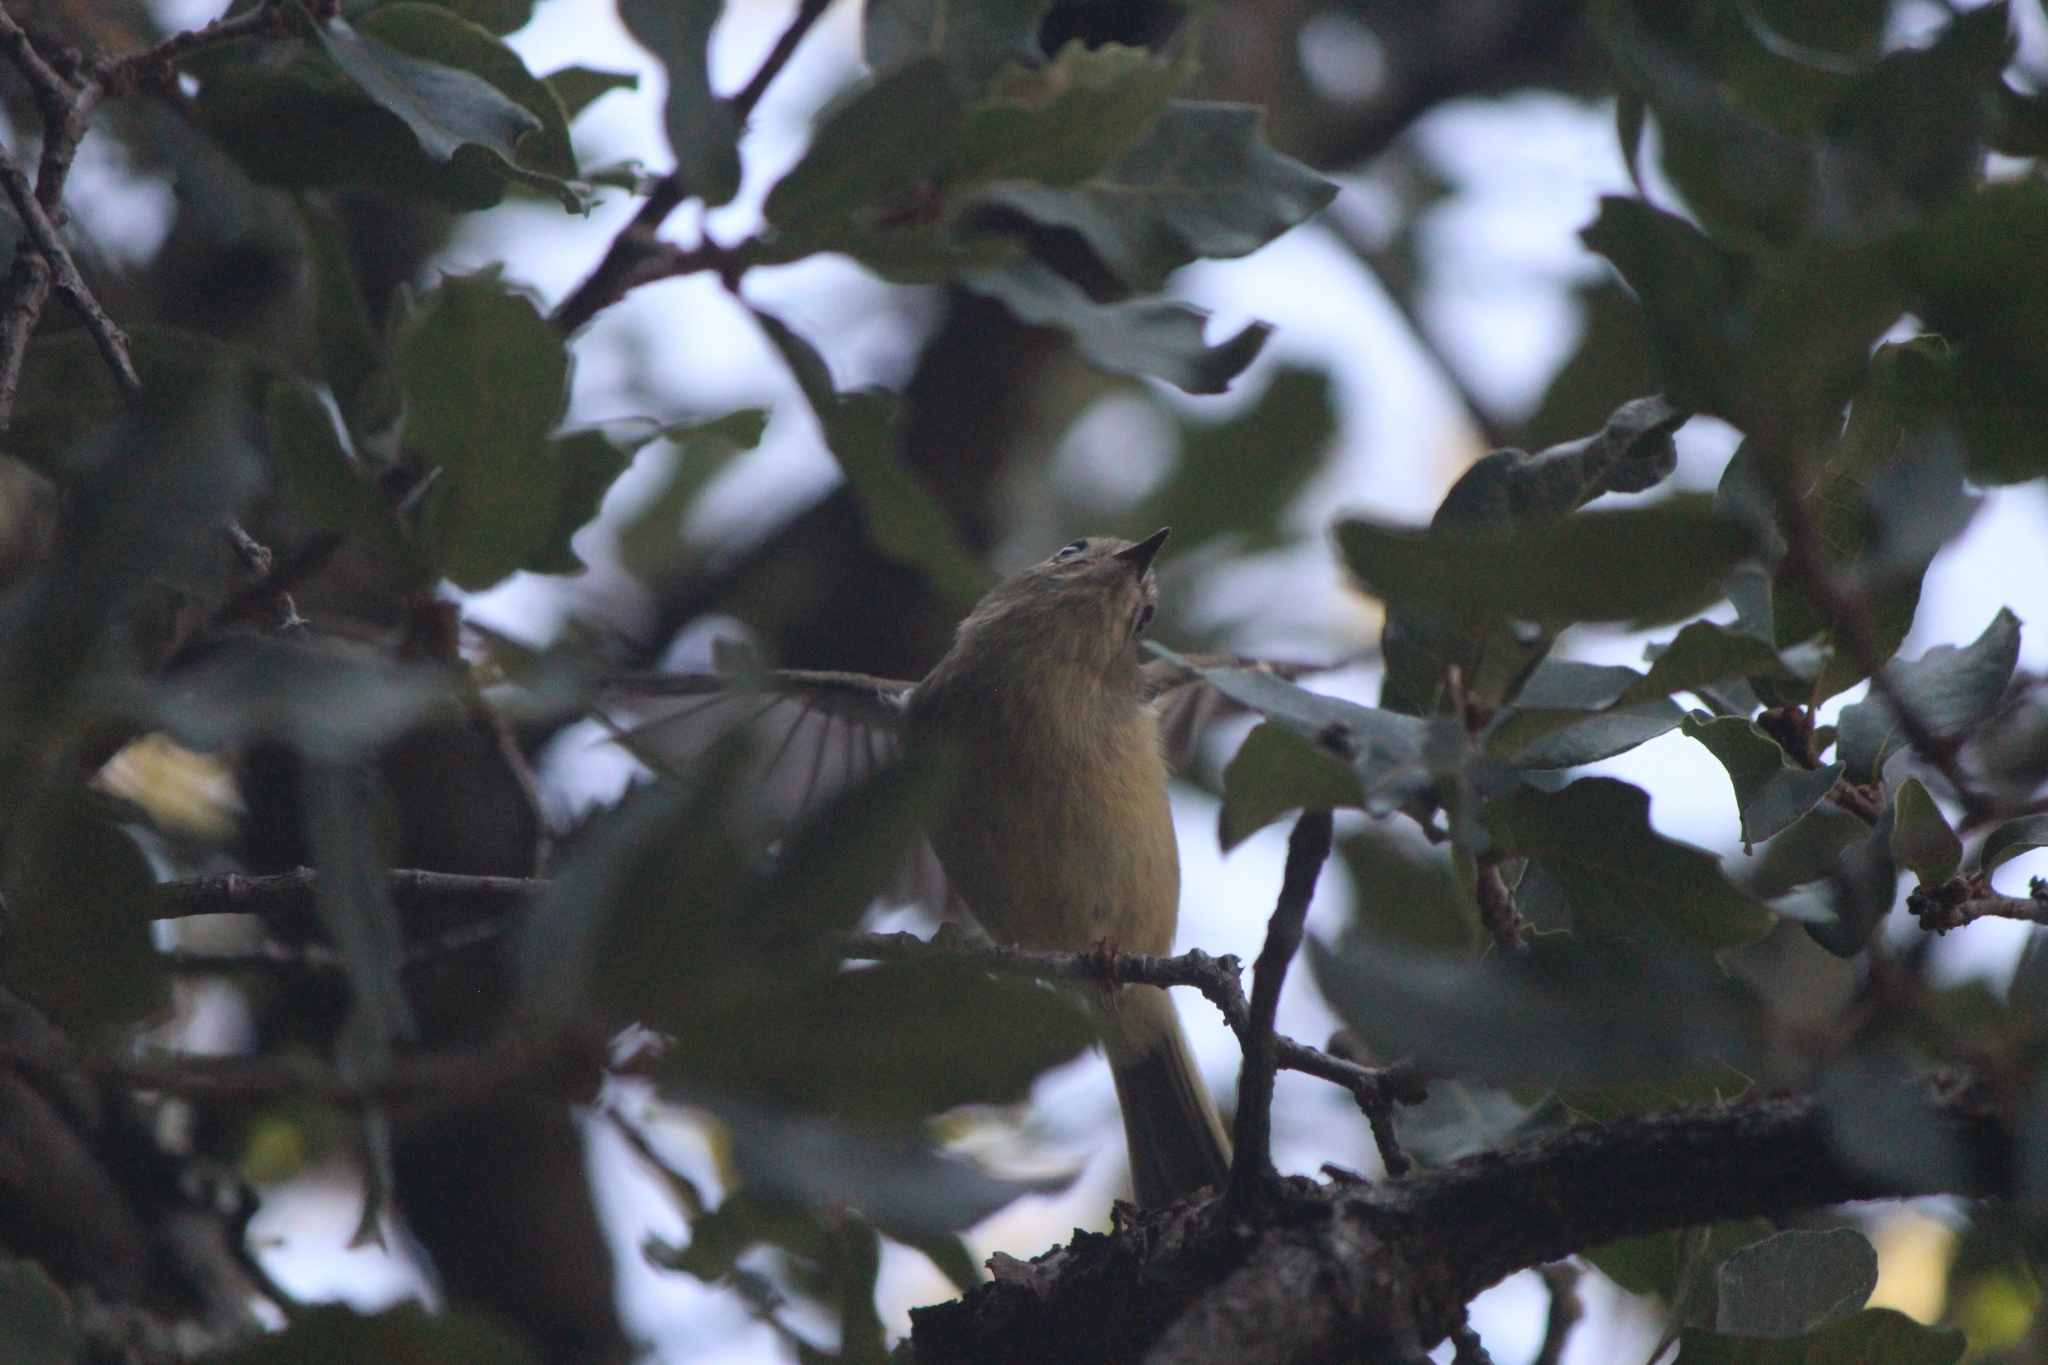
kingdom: Animalia
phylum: Chordata
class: Aves
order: Passeriformes
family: Regulidae
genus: Regulus
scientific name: Regulus calendula
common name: Ruby-crowned kinglet
